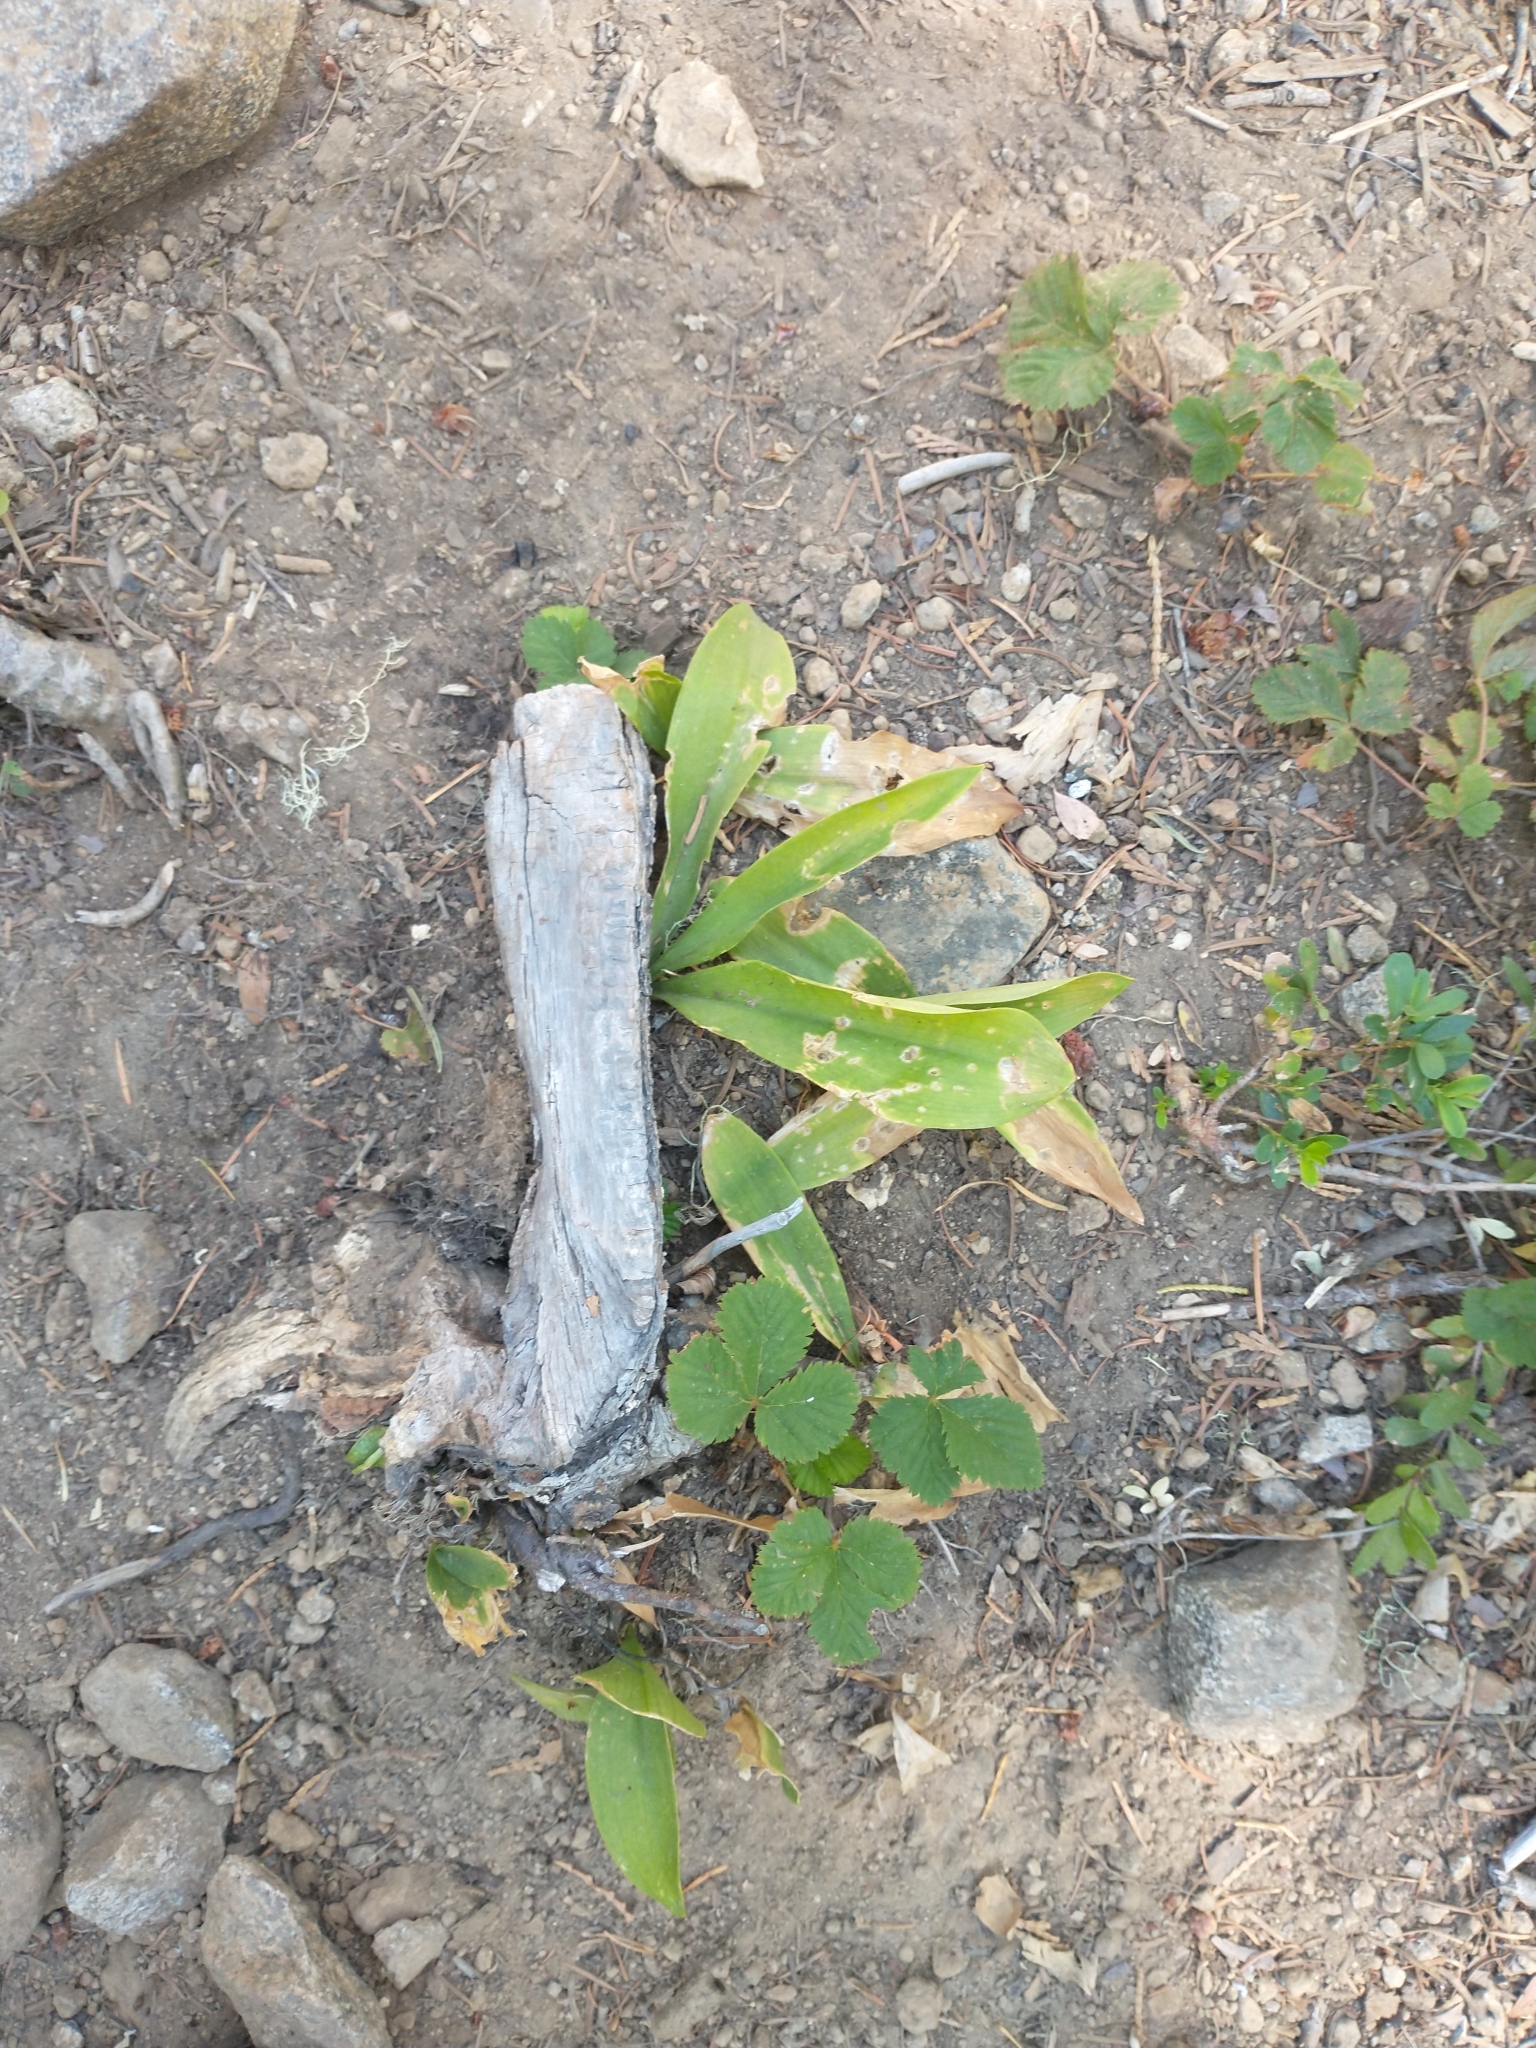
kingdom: Plantae
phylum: Tracheophyta
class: Liliopsida
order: Liliales
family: Liliaceae
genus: Clintonia
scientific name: Clintonia uniflora
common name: Queen's cup
